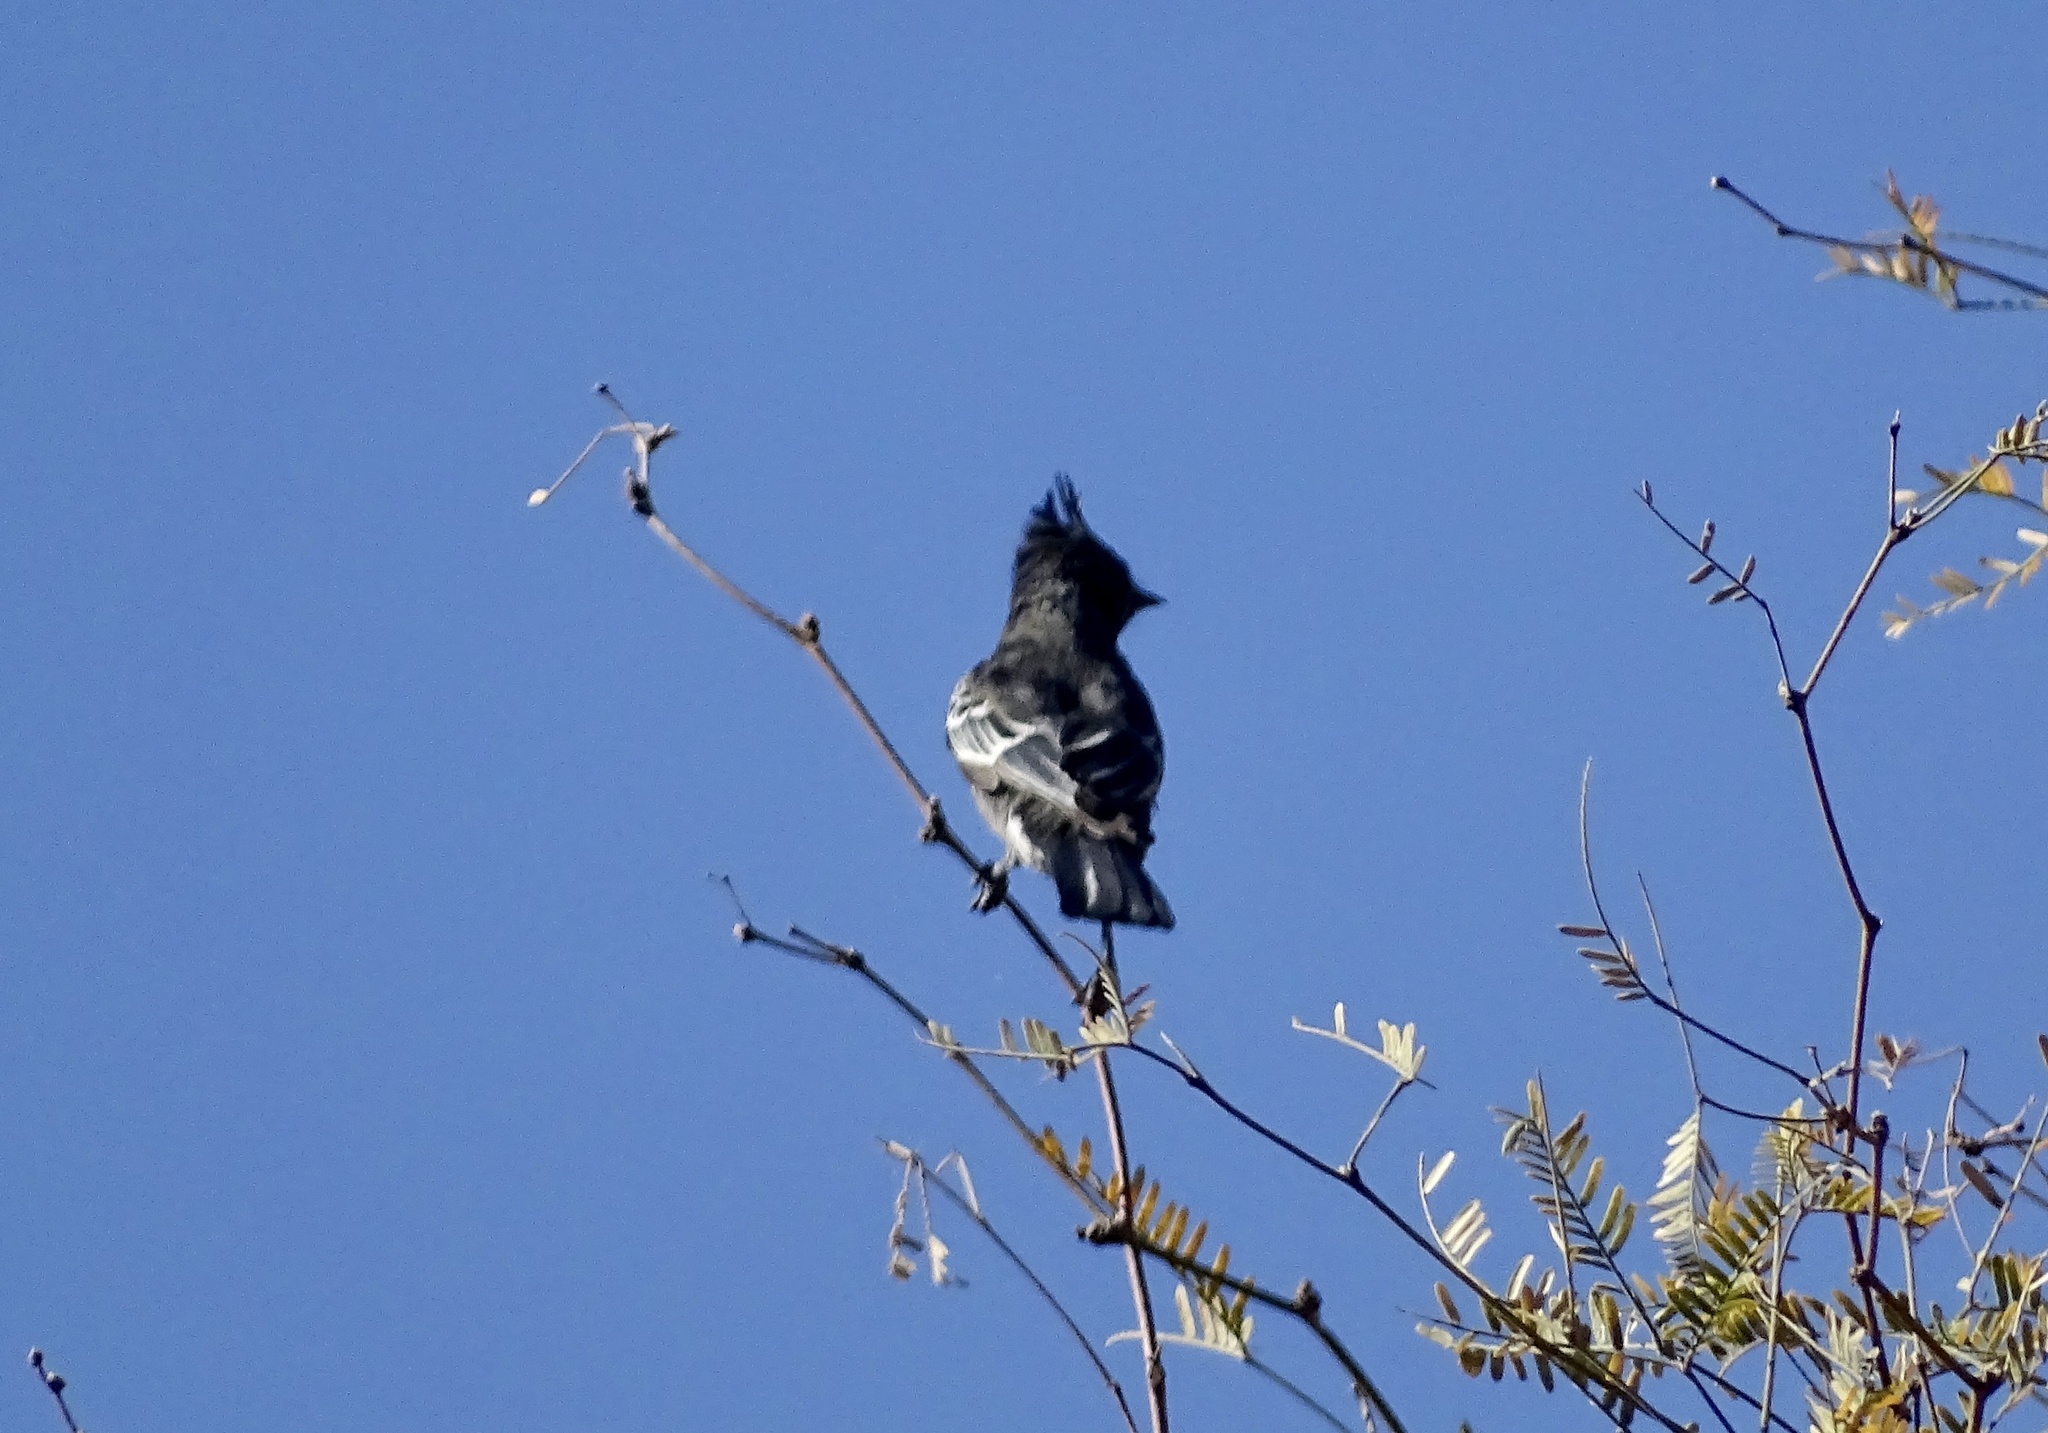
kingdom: Animalia
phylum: Chordata
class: Aves
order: Passeriformes
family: Ptilogonatidae
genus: Phainopepla
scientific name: Phainopepla nitens
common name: Phainopepla
